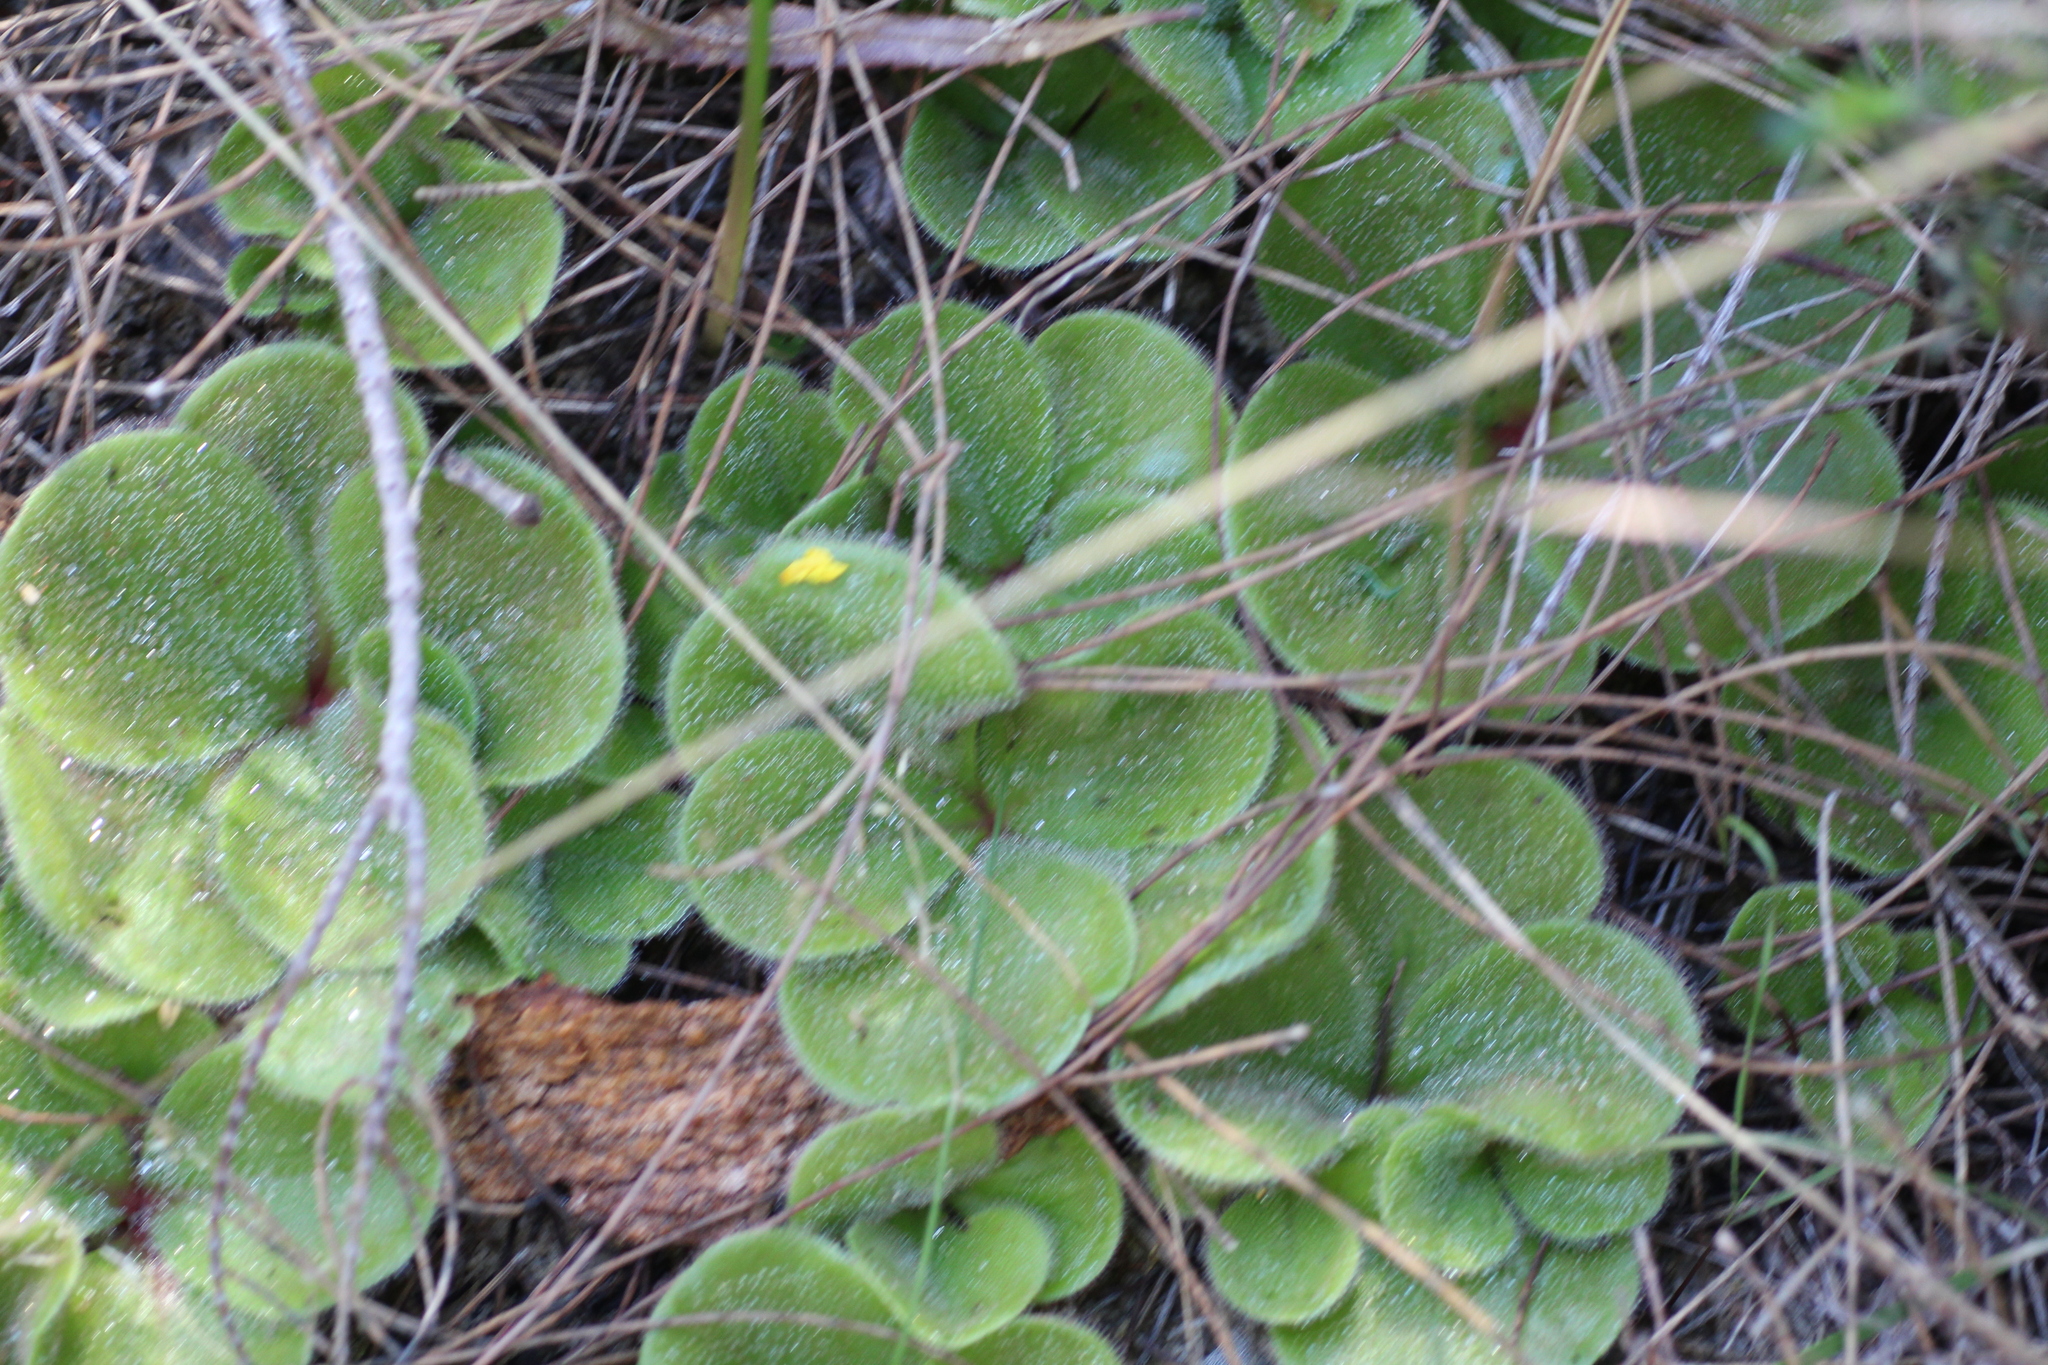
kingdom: Plantae
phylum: Tracheophyta
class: Magnoliopsida
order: Caryophyllales
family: Droseraceae
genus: Drosera
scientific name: Drosera erythrorhiza
